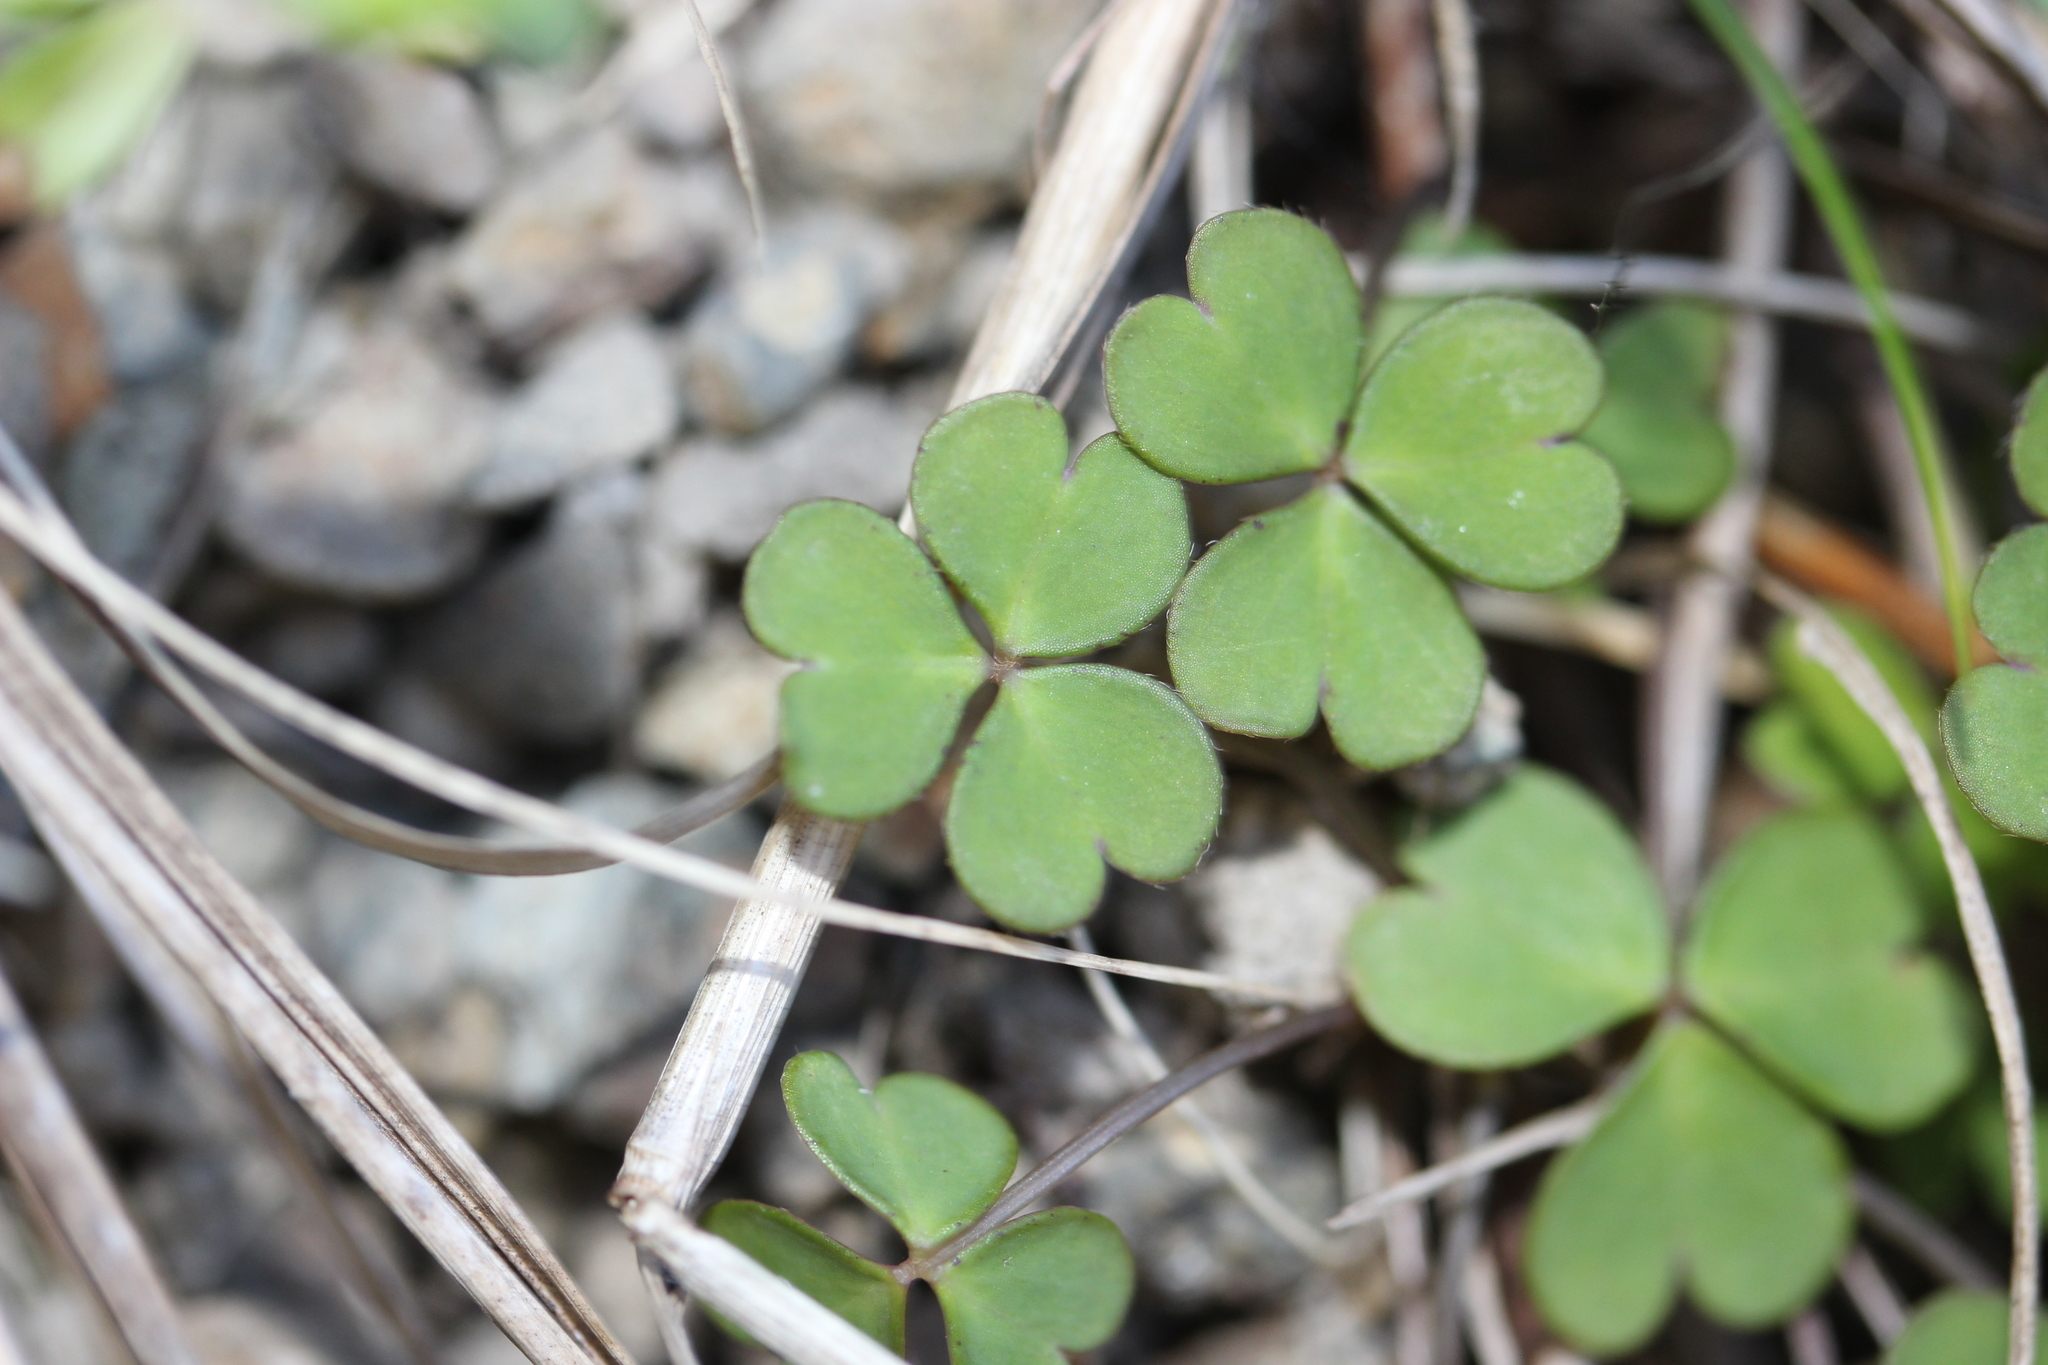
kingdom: Plantae
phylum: Tracheophyta
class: Magnoliopsida
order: Oxalidales
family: Oxalidaceae
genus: Oxalis
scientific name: Oxalis magellanica
